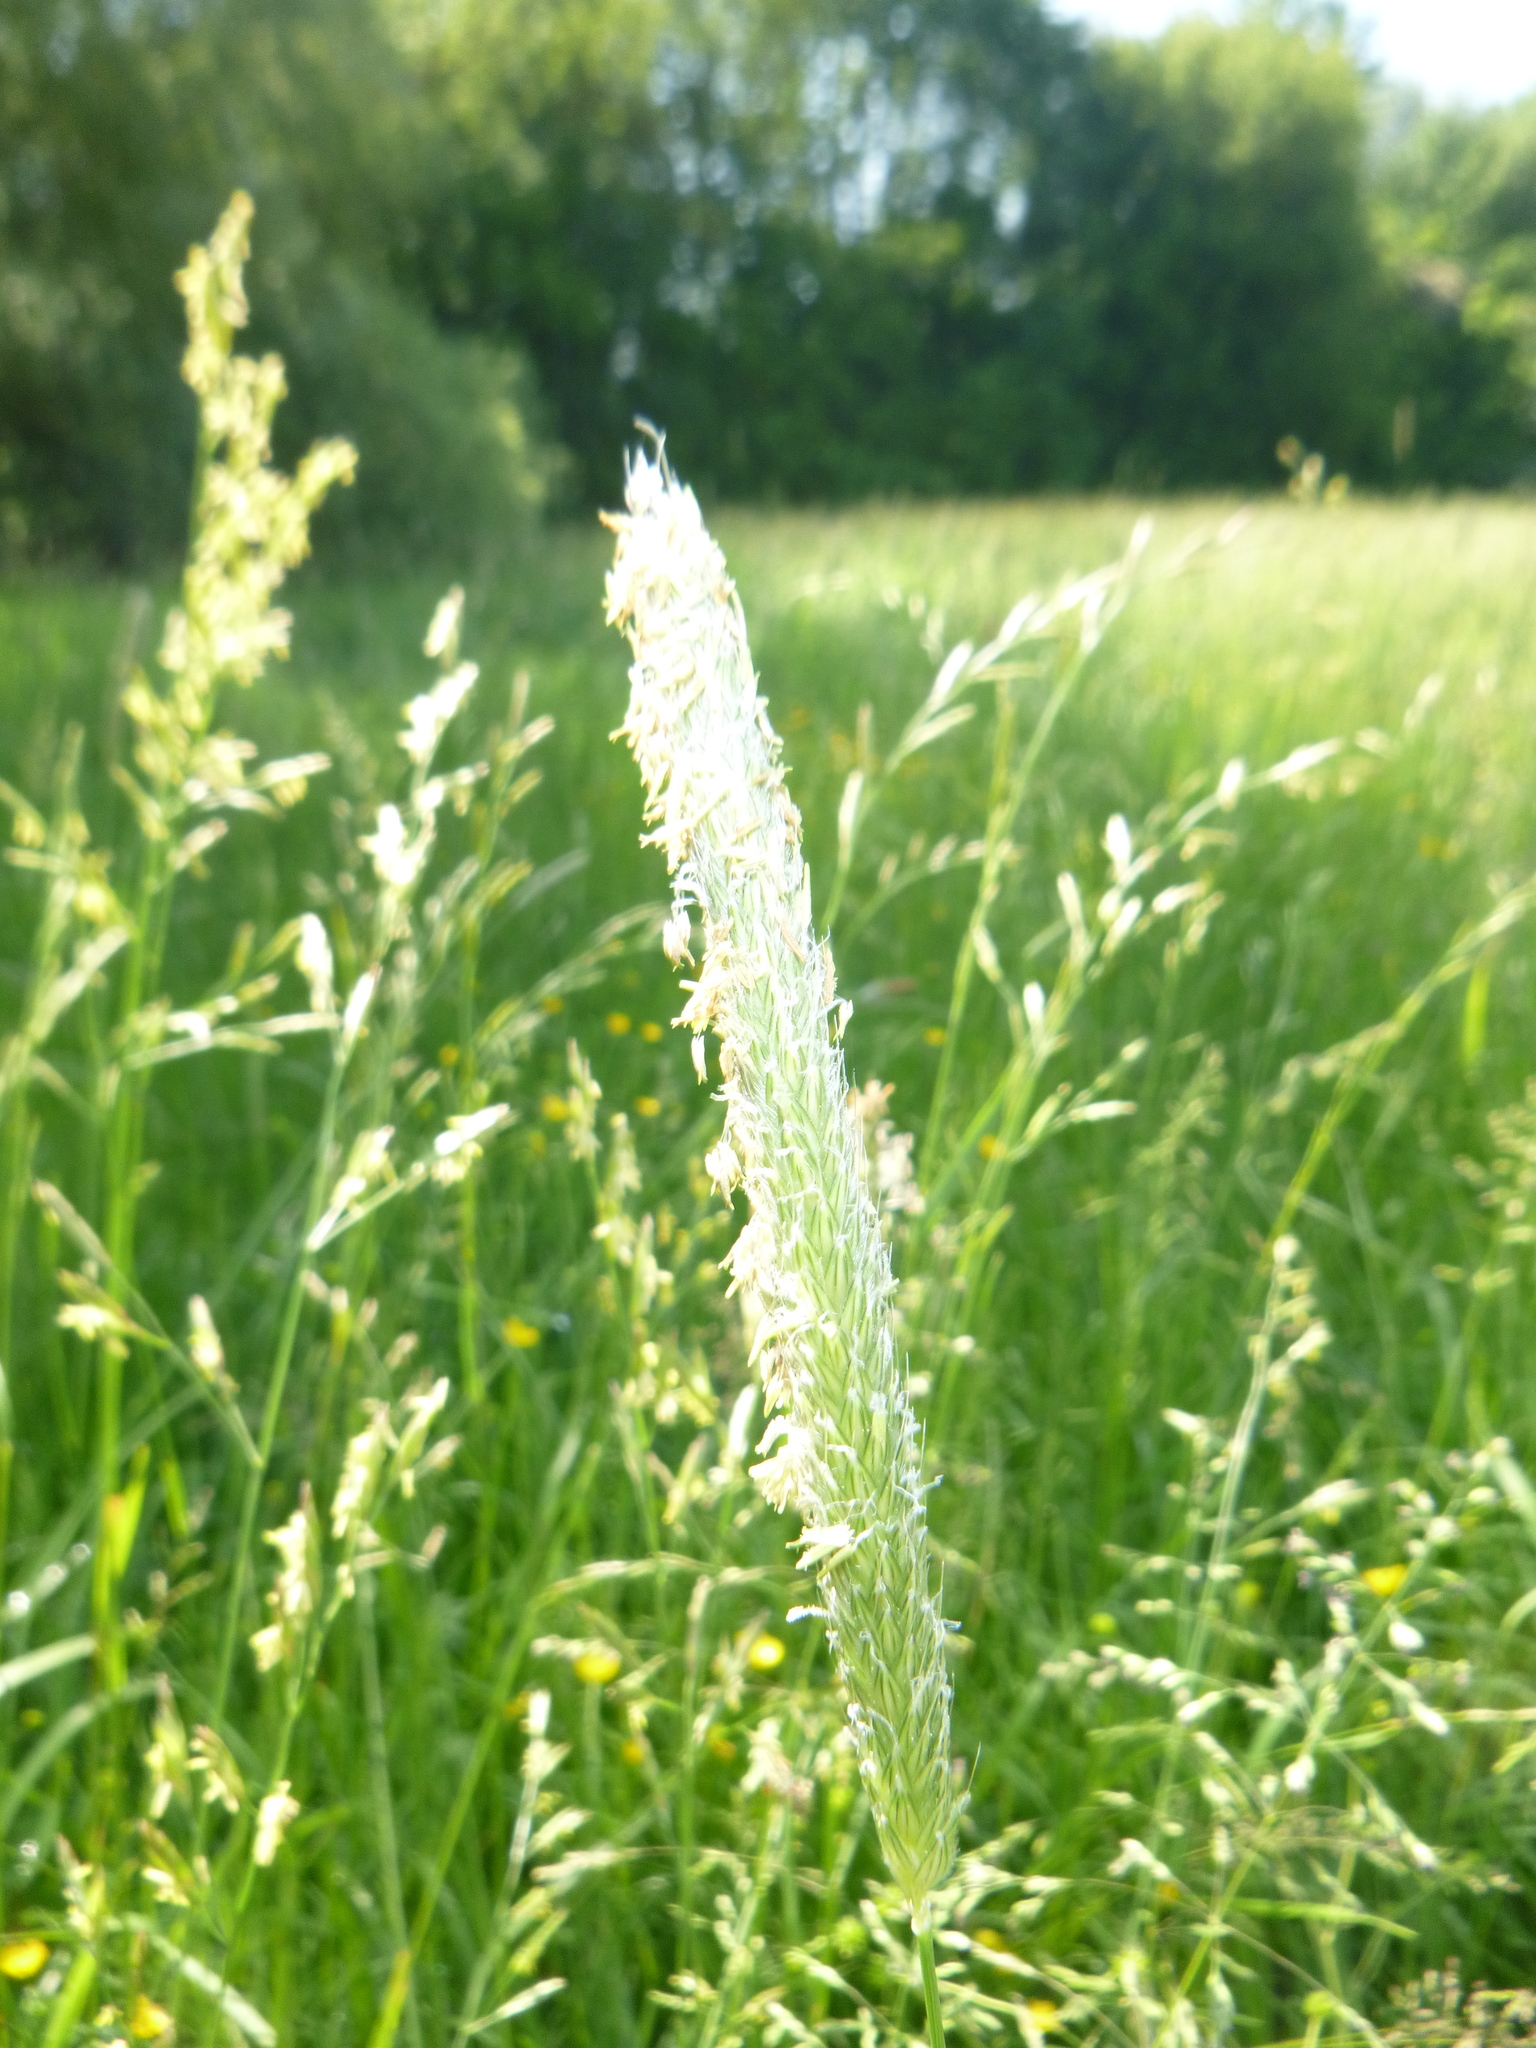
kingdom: Plantae
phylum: Tracheophyta
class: Liliopsida
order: Poales
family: Poaceae
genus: Alopecurus
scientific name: Alopecurus pratensis
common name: Meadow foxtail
